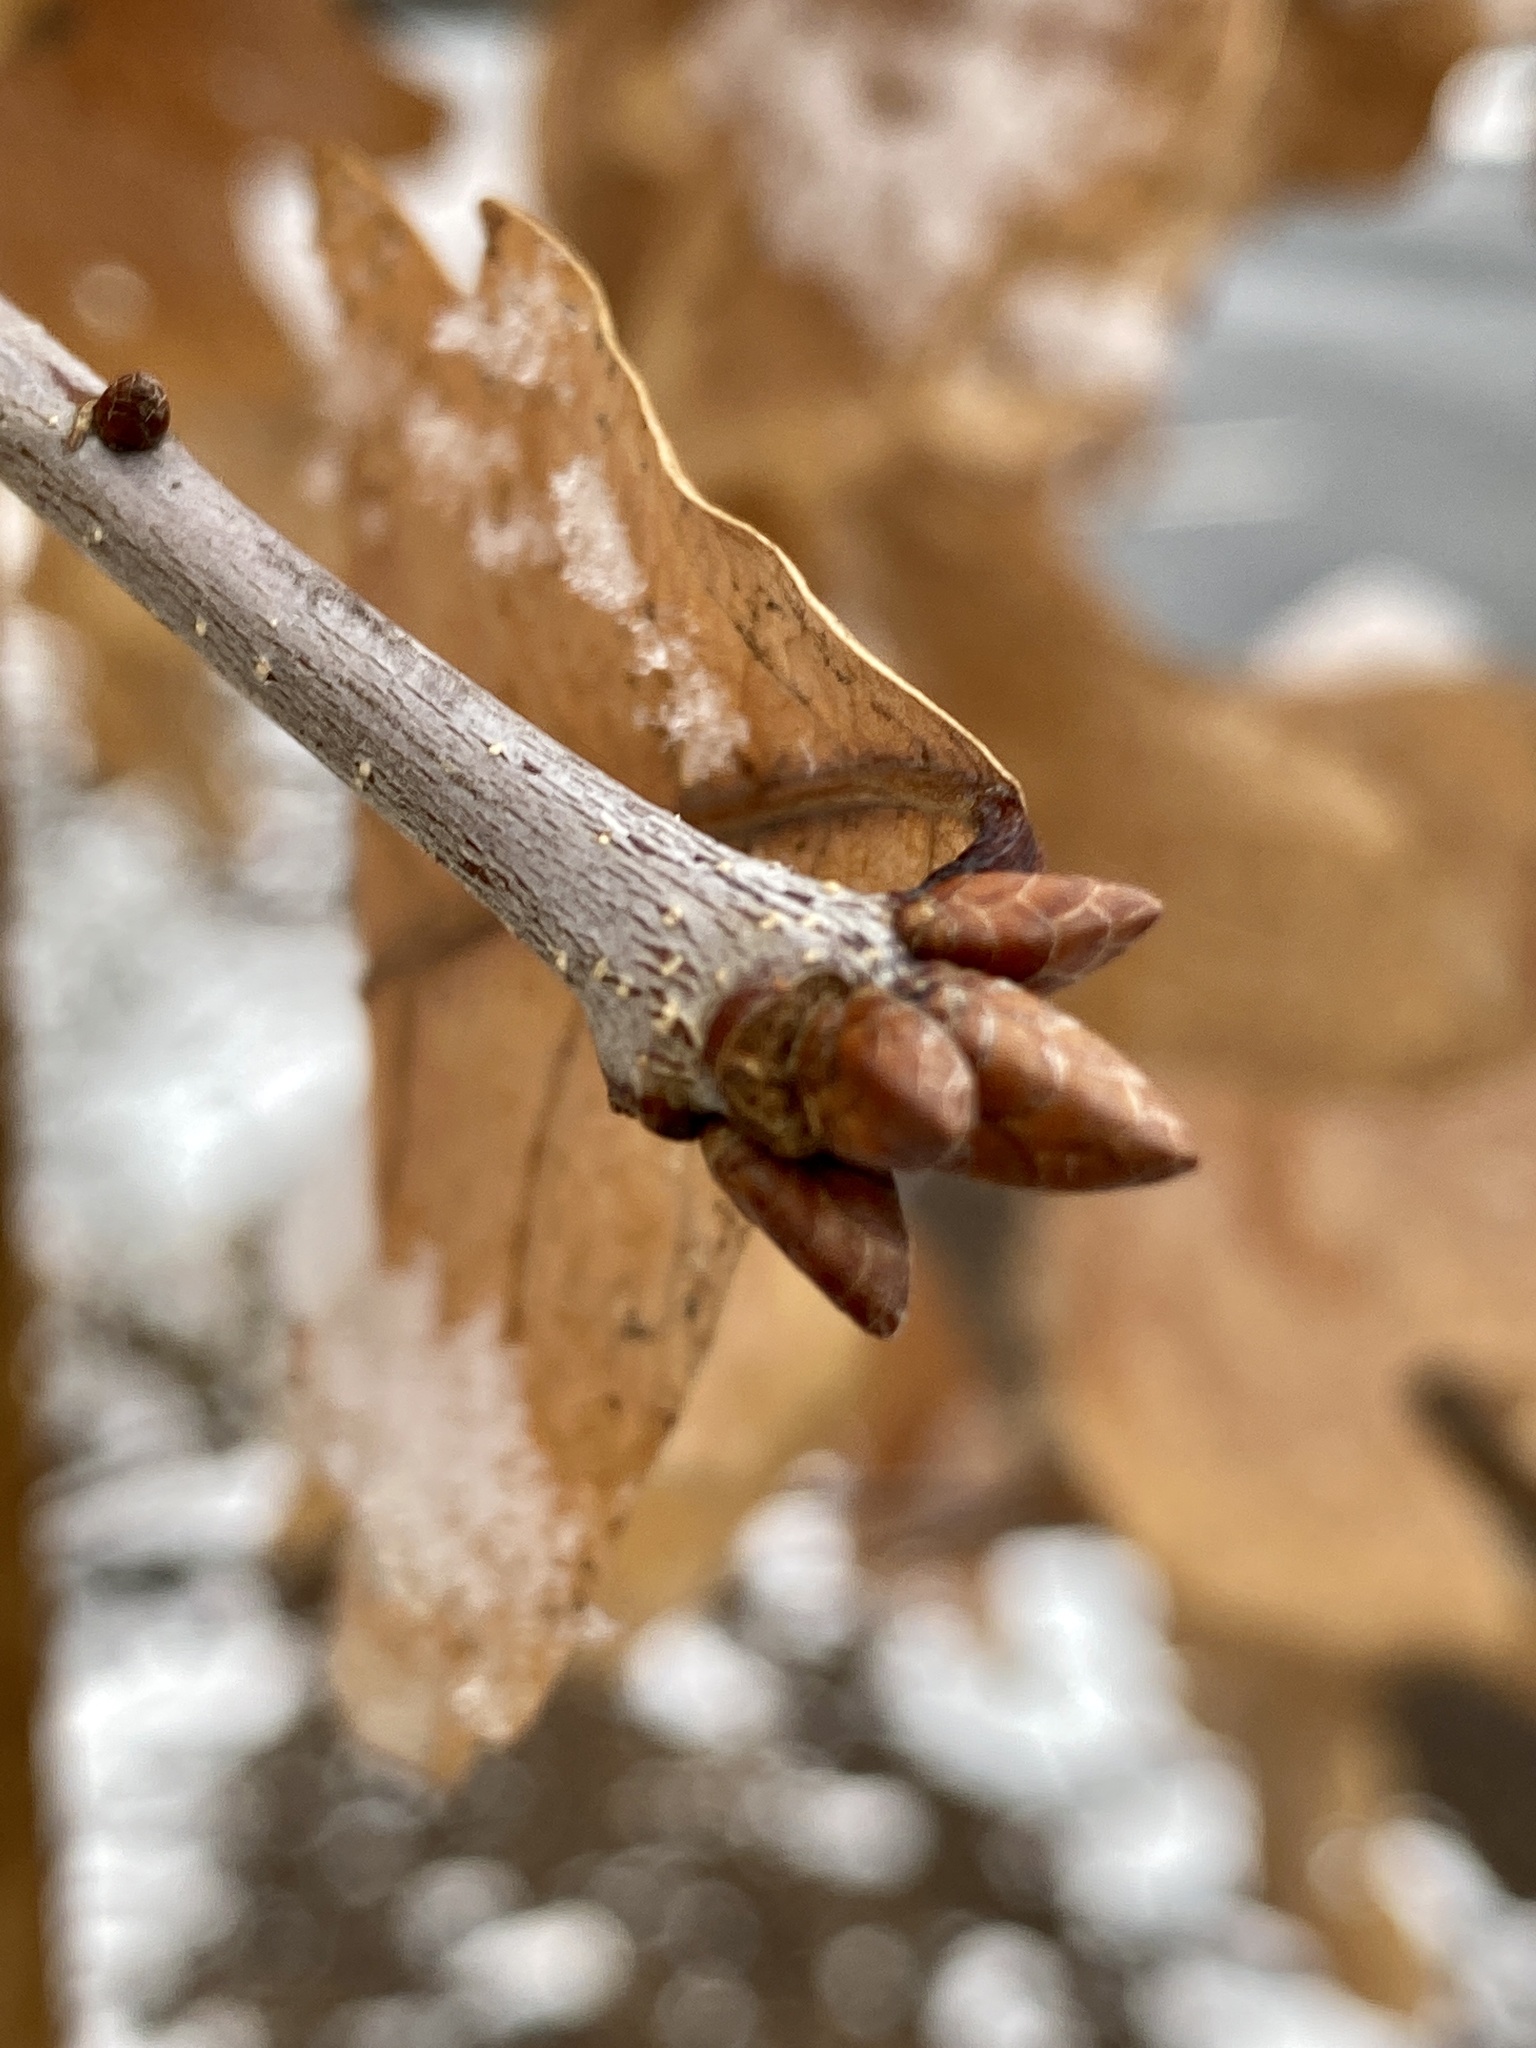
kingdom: Plantae
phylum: Tracheophyta
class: Magnoliopsida
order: Fagales
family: Fagaceae
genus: Quercus
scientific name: Quercus alba
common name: White oak
